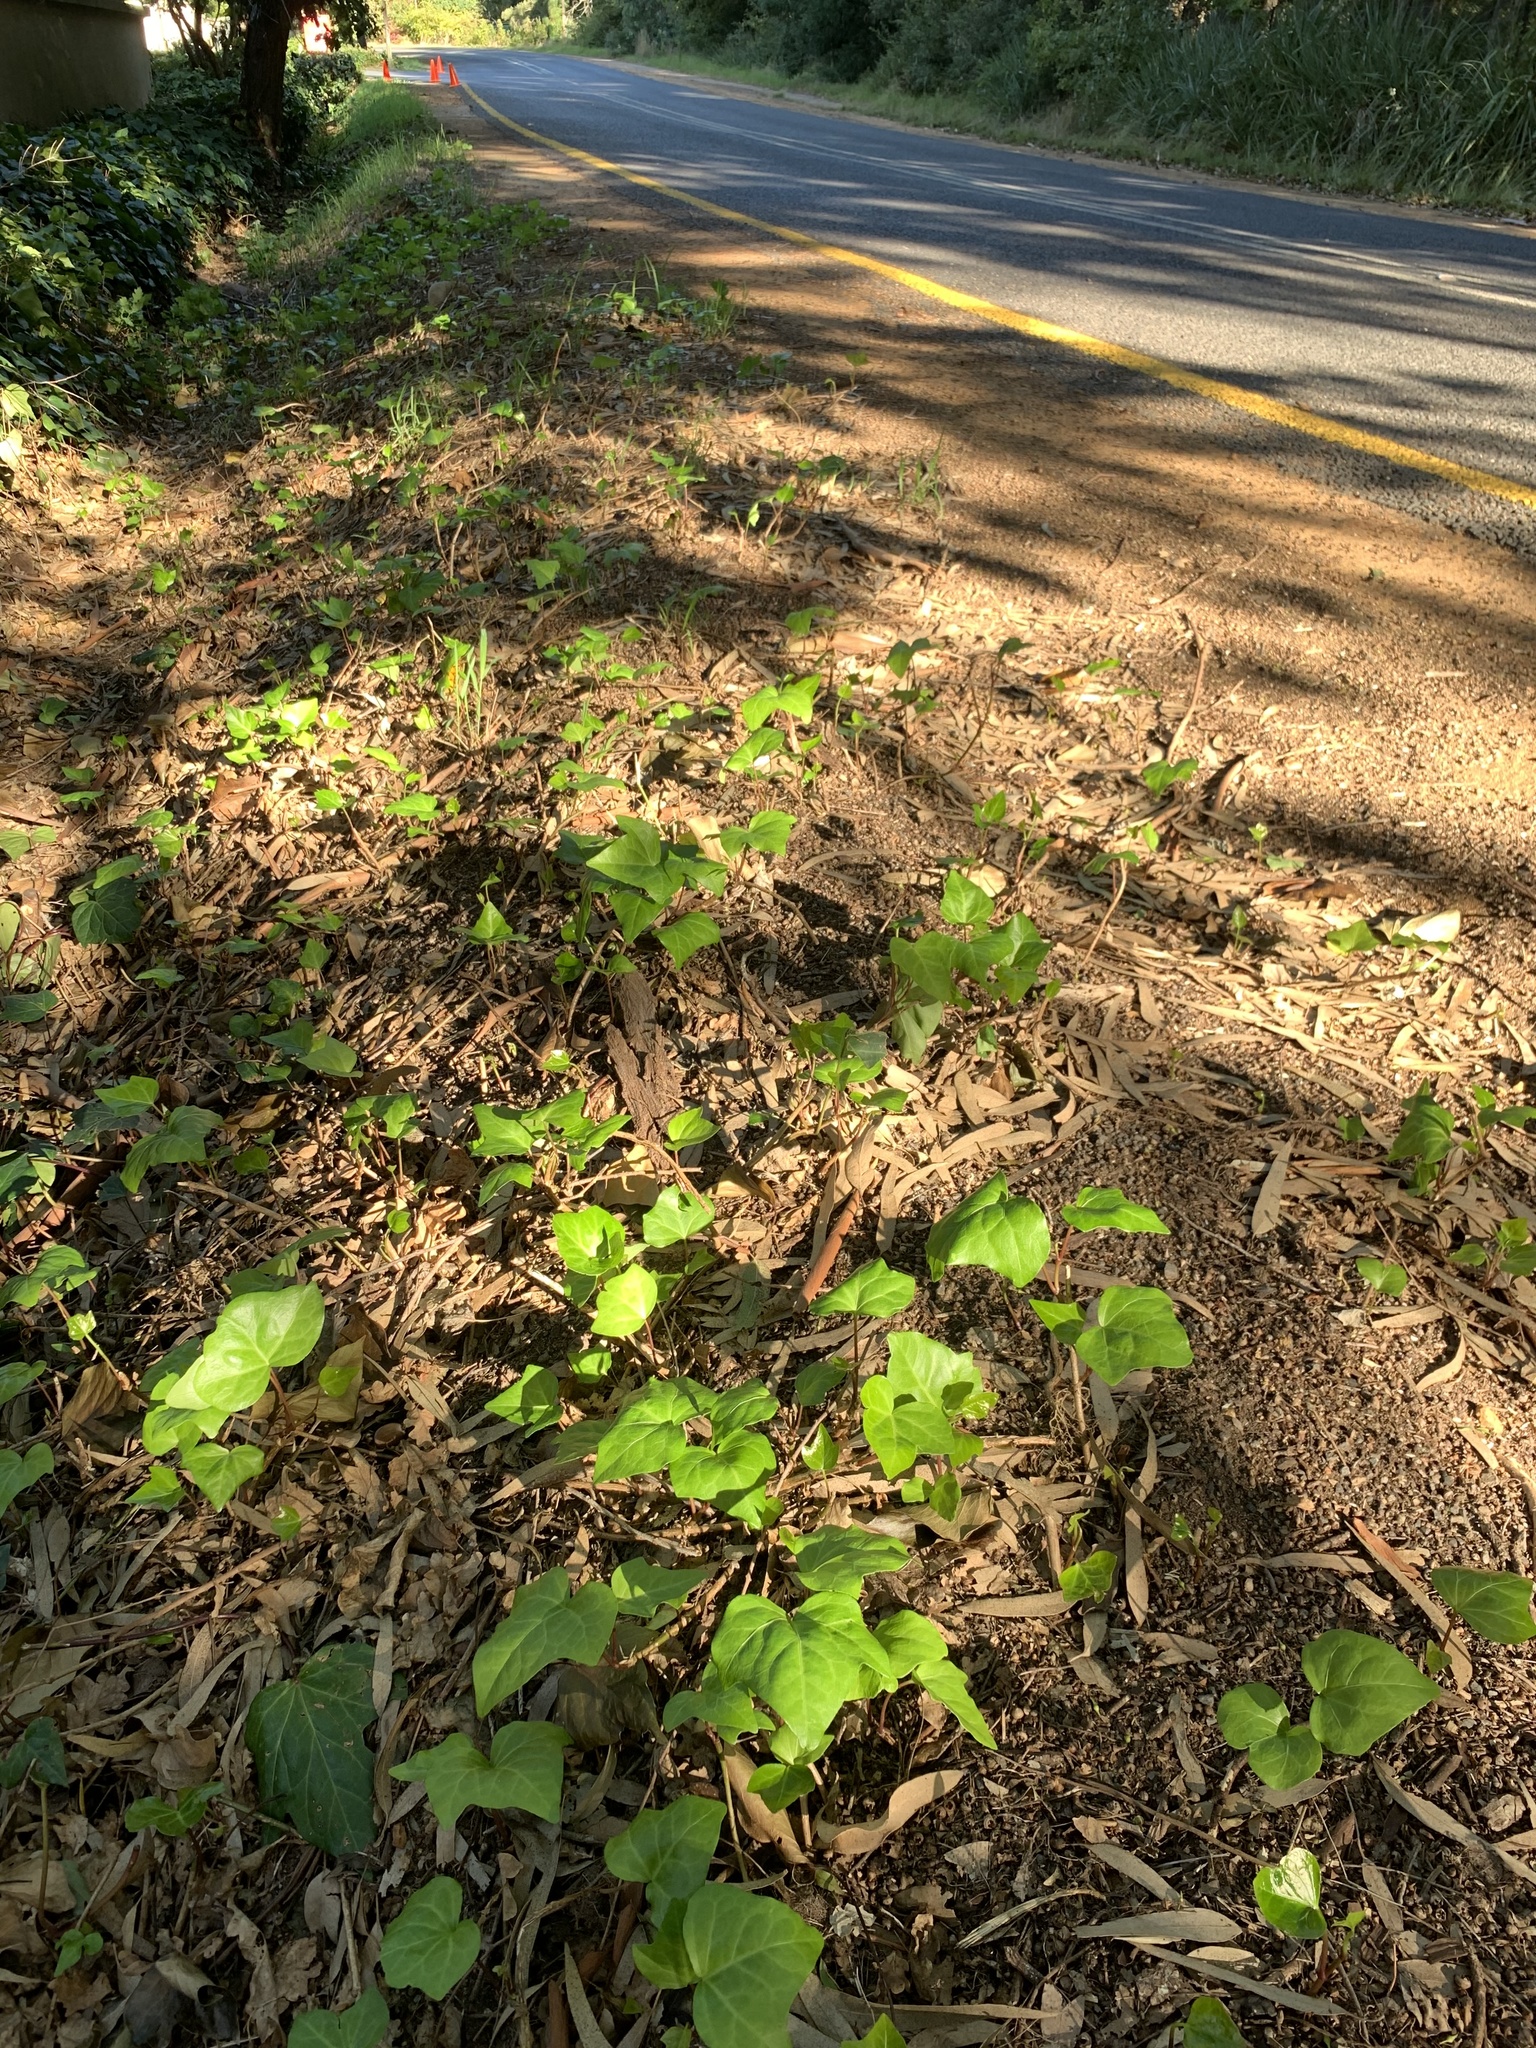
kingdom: Plantae
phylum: Tracheophyta
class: Magnoliopsida
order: Apiales
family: Araliaceae
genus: Hedera
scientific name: Hedera canariensis
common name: Madeira ivy
